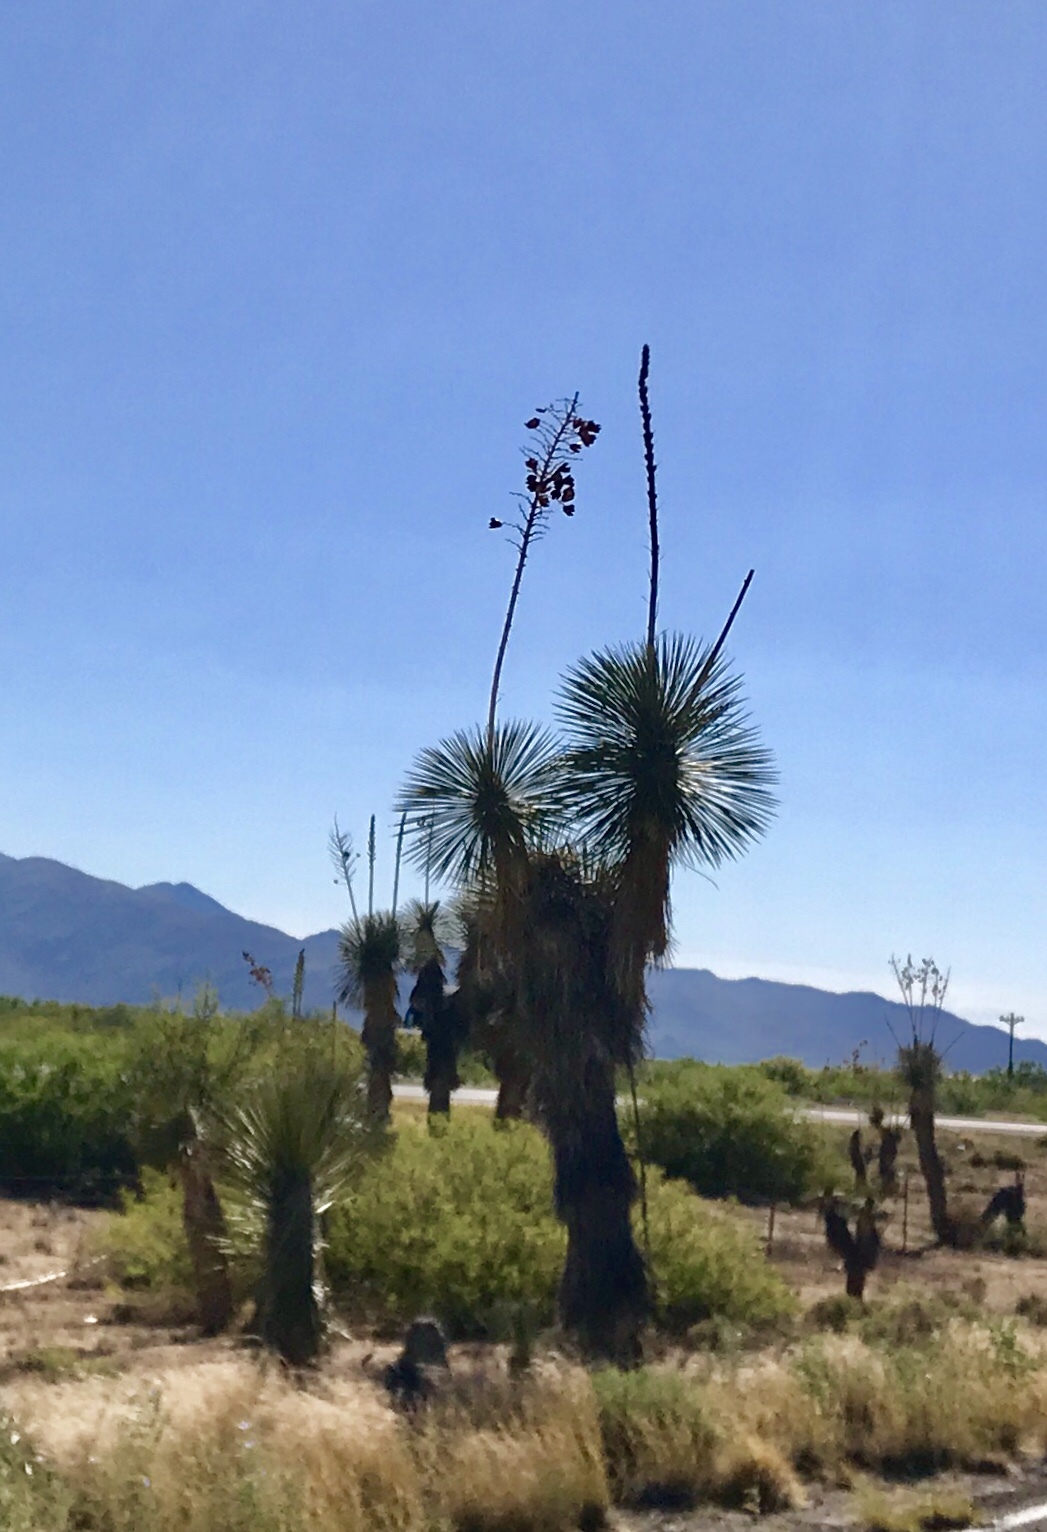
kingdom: Plantae
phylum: Tracheophyta
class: Liliopsida
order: Asparagales
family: Asparagaceae
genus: Yucca
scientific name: Yucca elata
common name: Palmella
